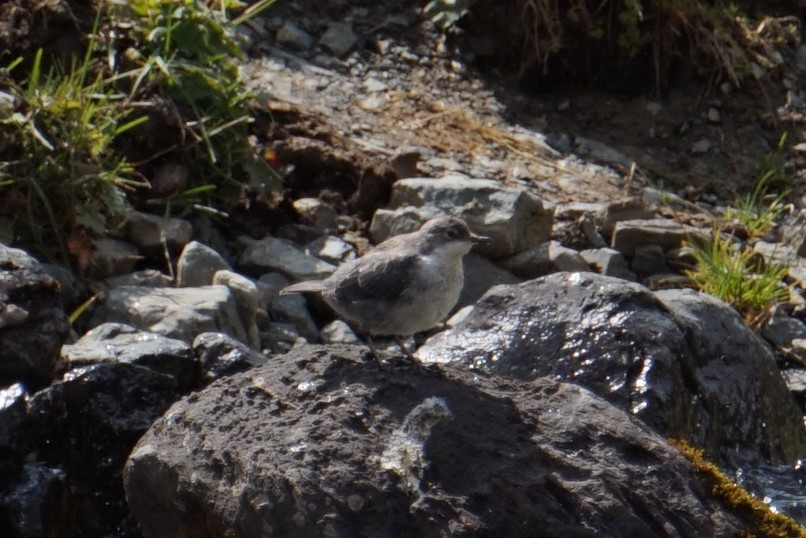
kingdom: Animalia
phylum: Chordata
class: Aves
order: Passeriformes
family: Cinclidae
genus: Cinclus
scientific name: Cinclus cinclus
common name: White-throated dipper
